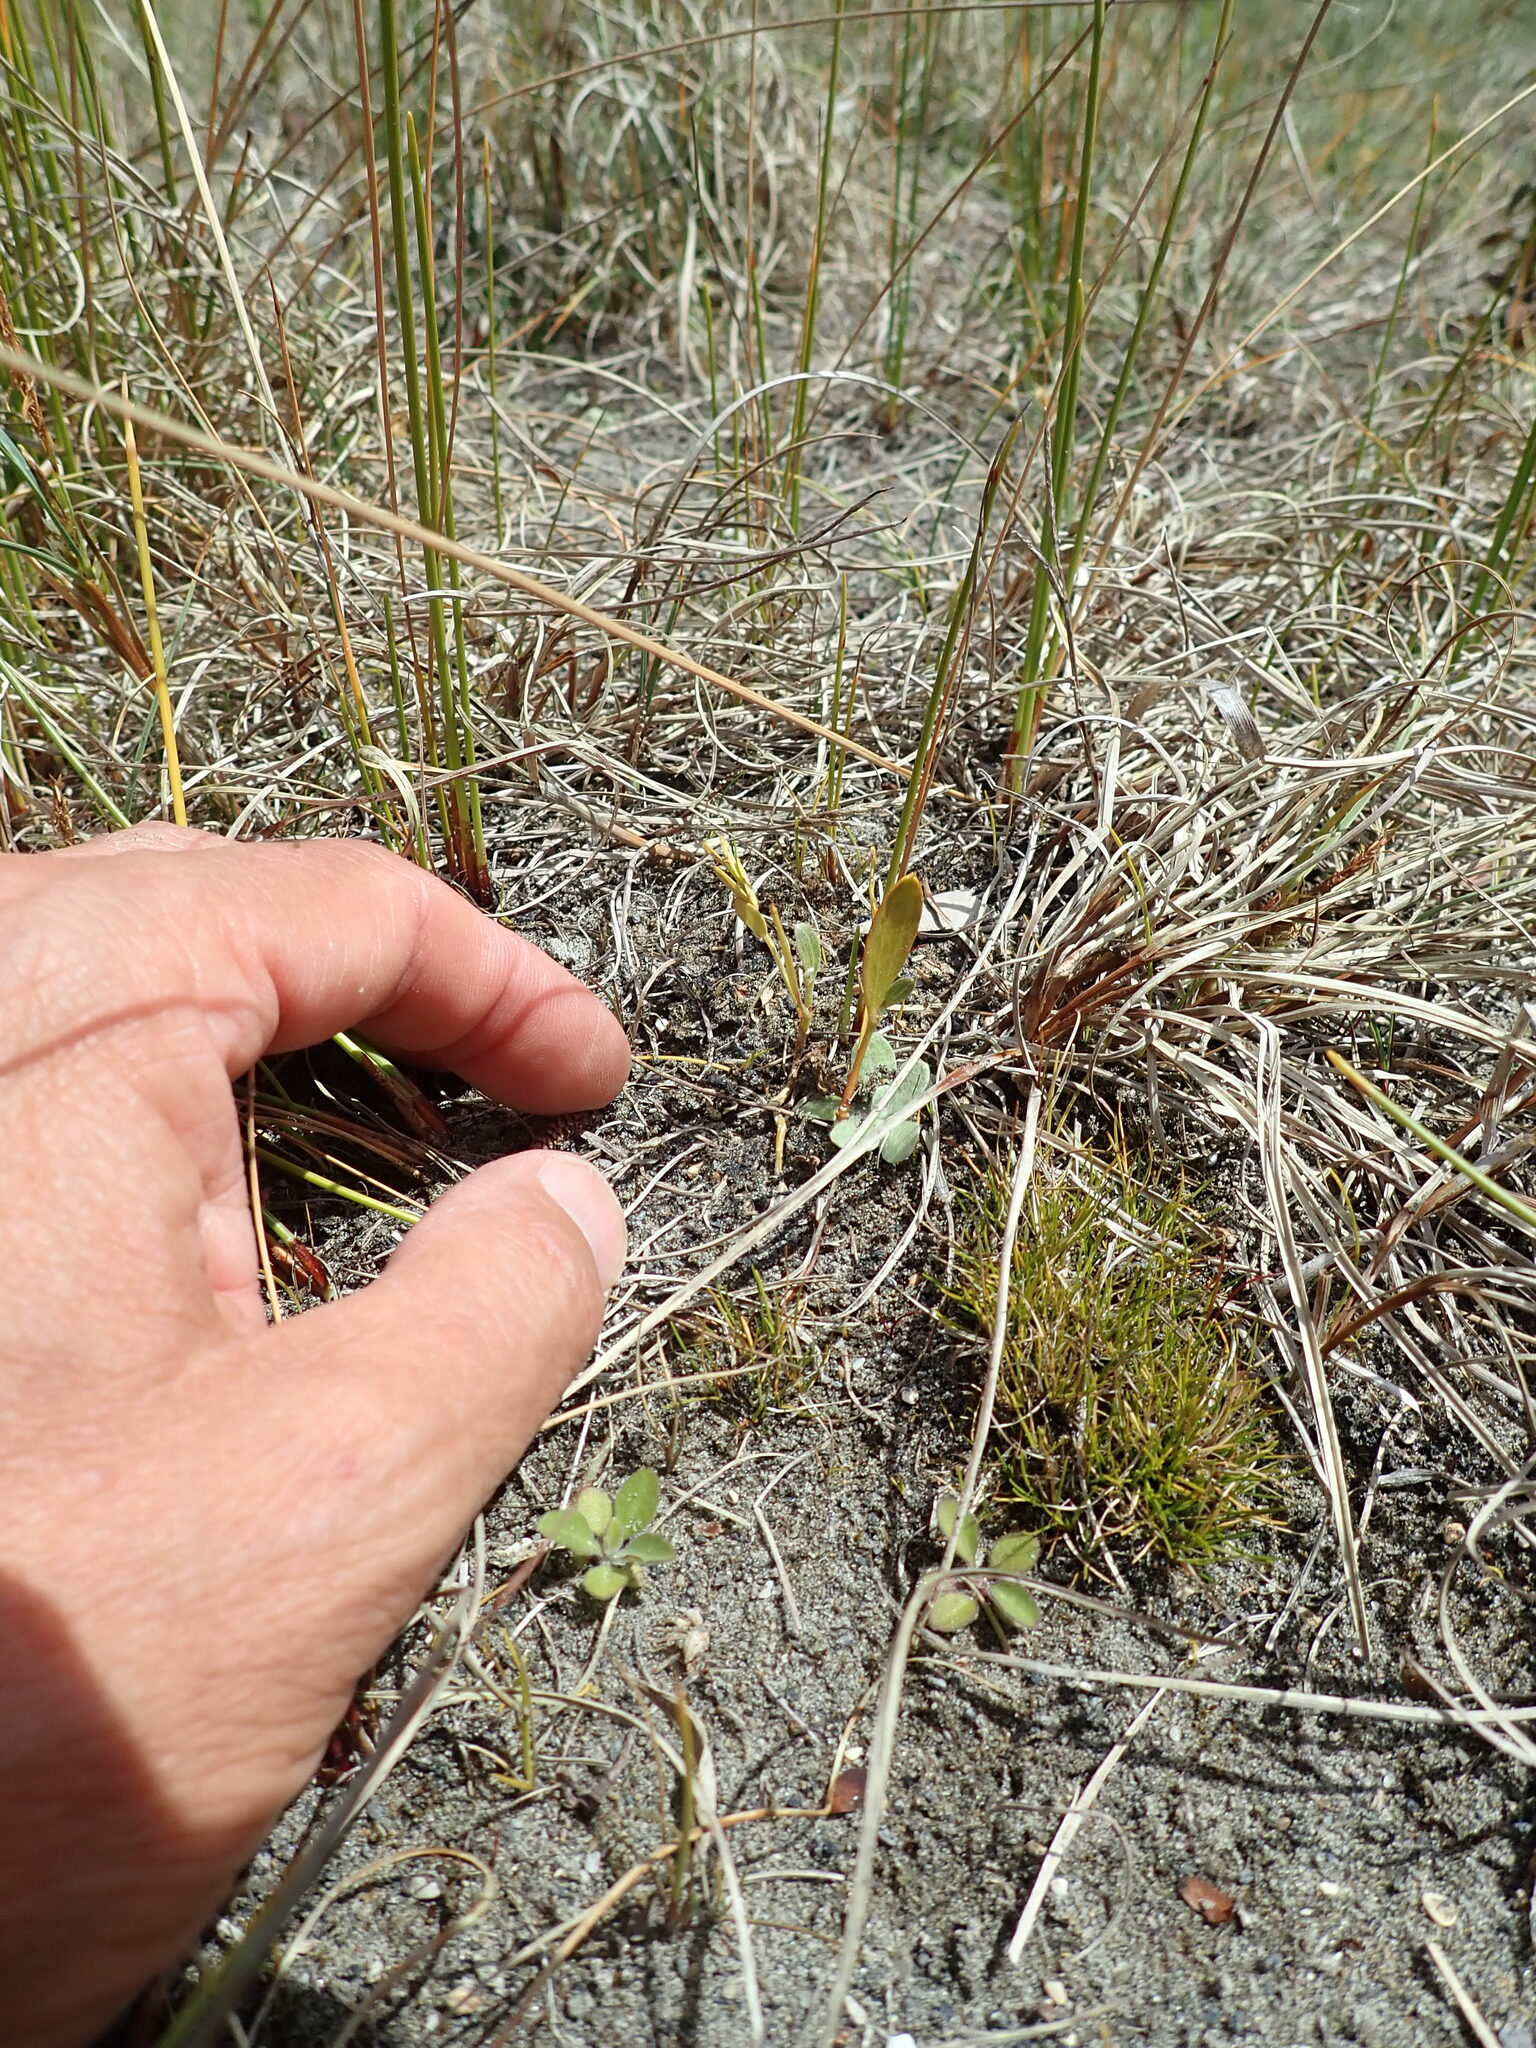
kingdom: Plantae
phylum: Tracheophyta
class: Magnoliopsida
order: Fabales
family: Fabaceae
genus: Acacia
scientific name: Acacia longifolia
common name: Sydney golden wattle
